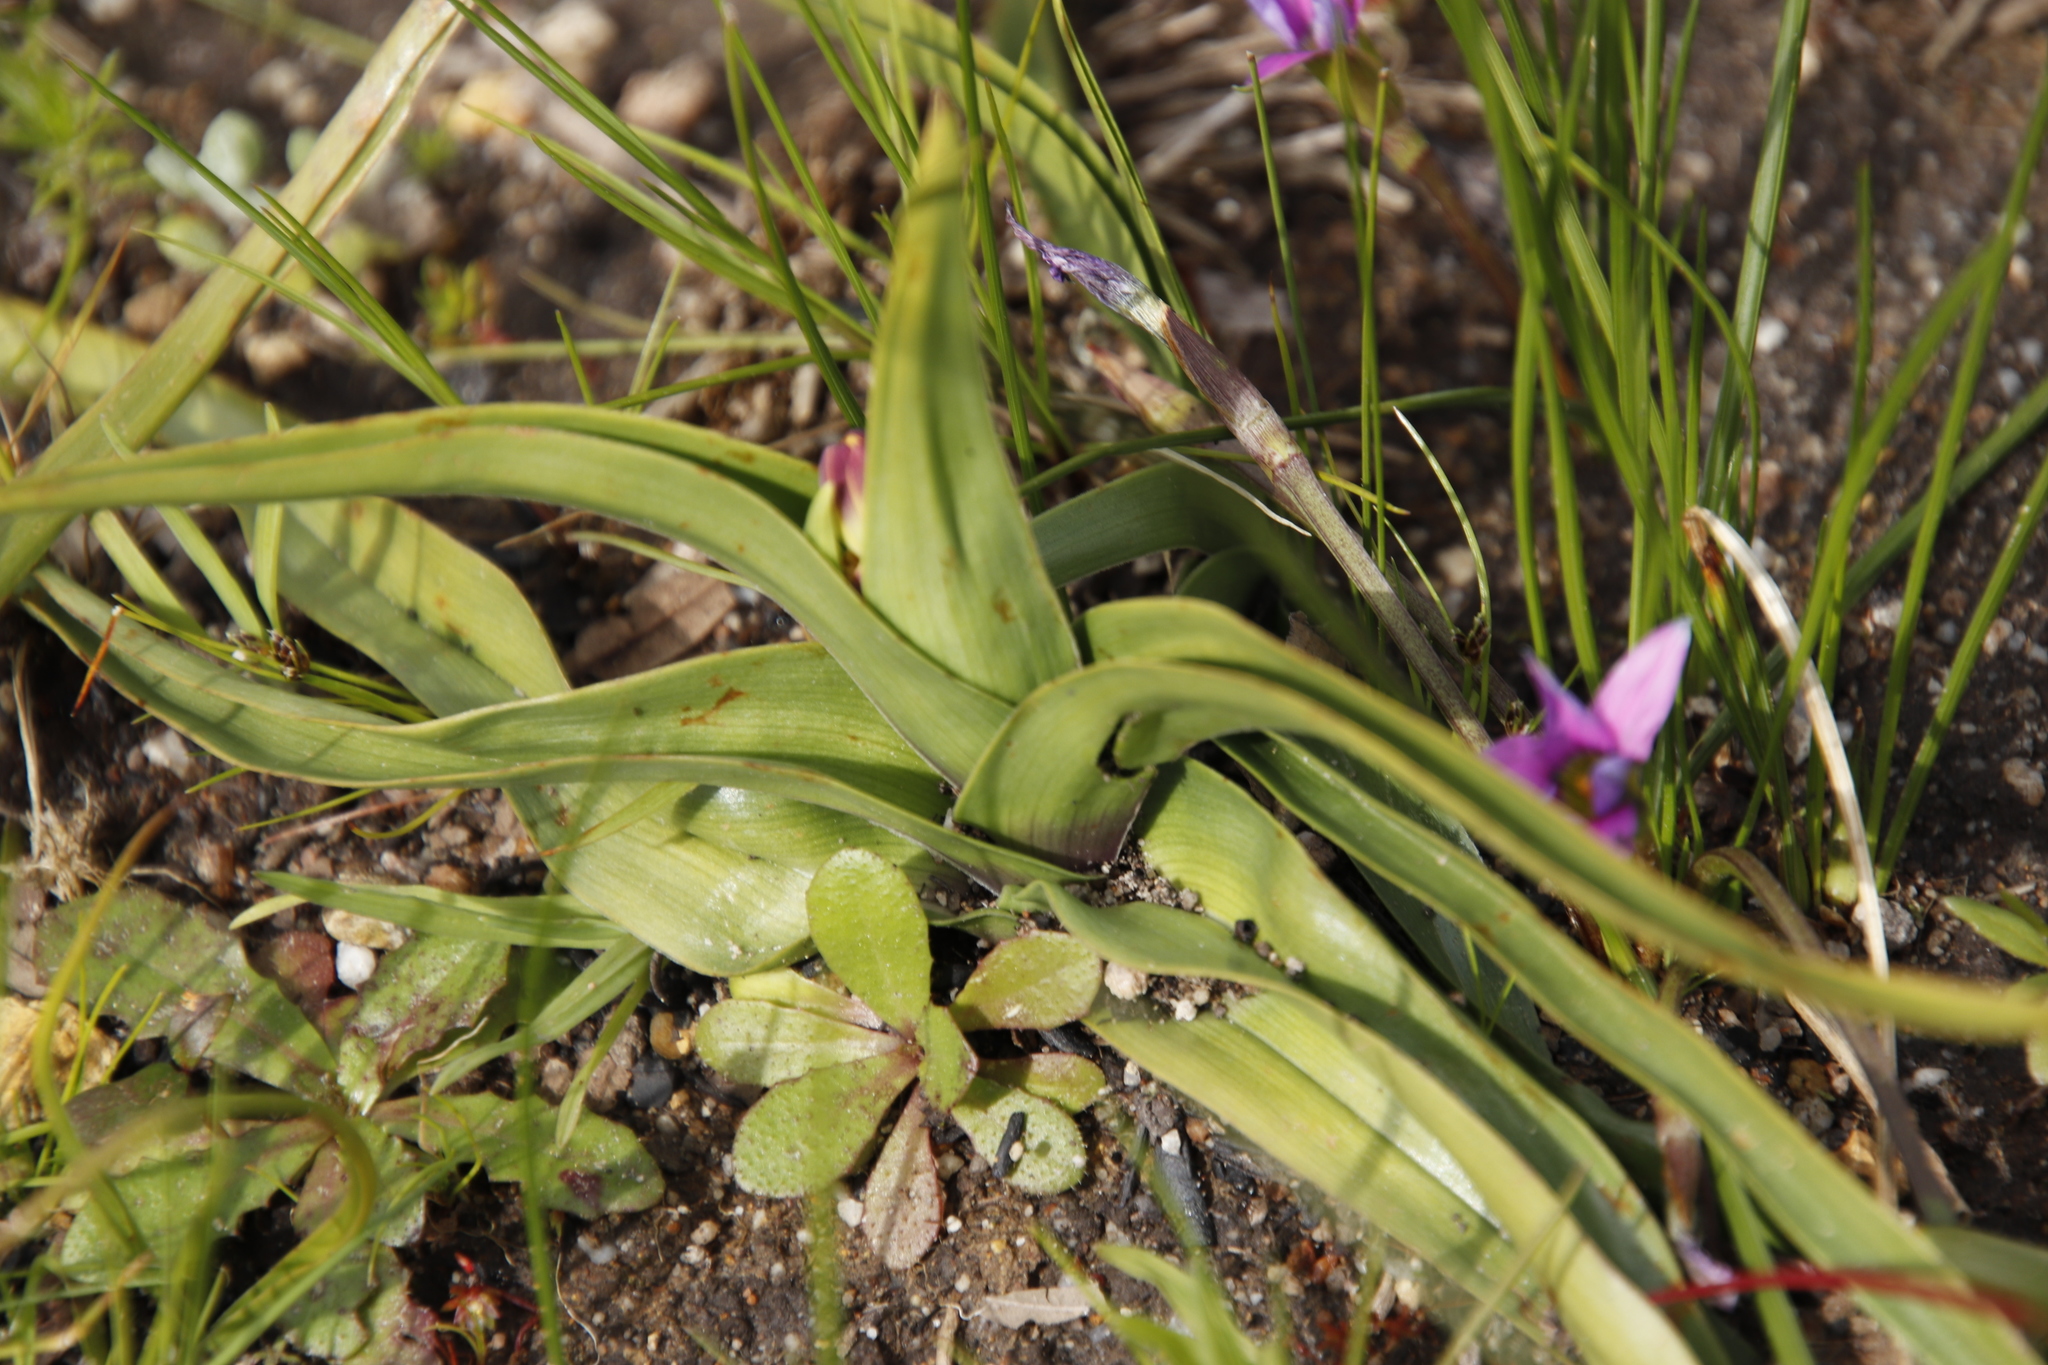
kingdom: Plantae
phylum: Tracheophyta
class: Liliopsida
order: Liliales
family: Colchicaceae
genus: Baeometra
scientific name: Baeometra uniflora
